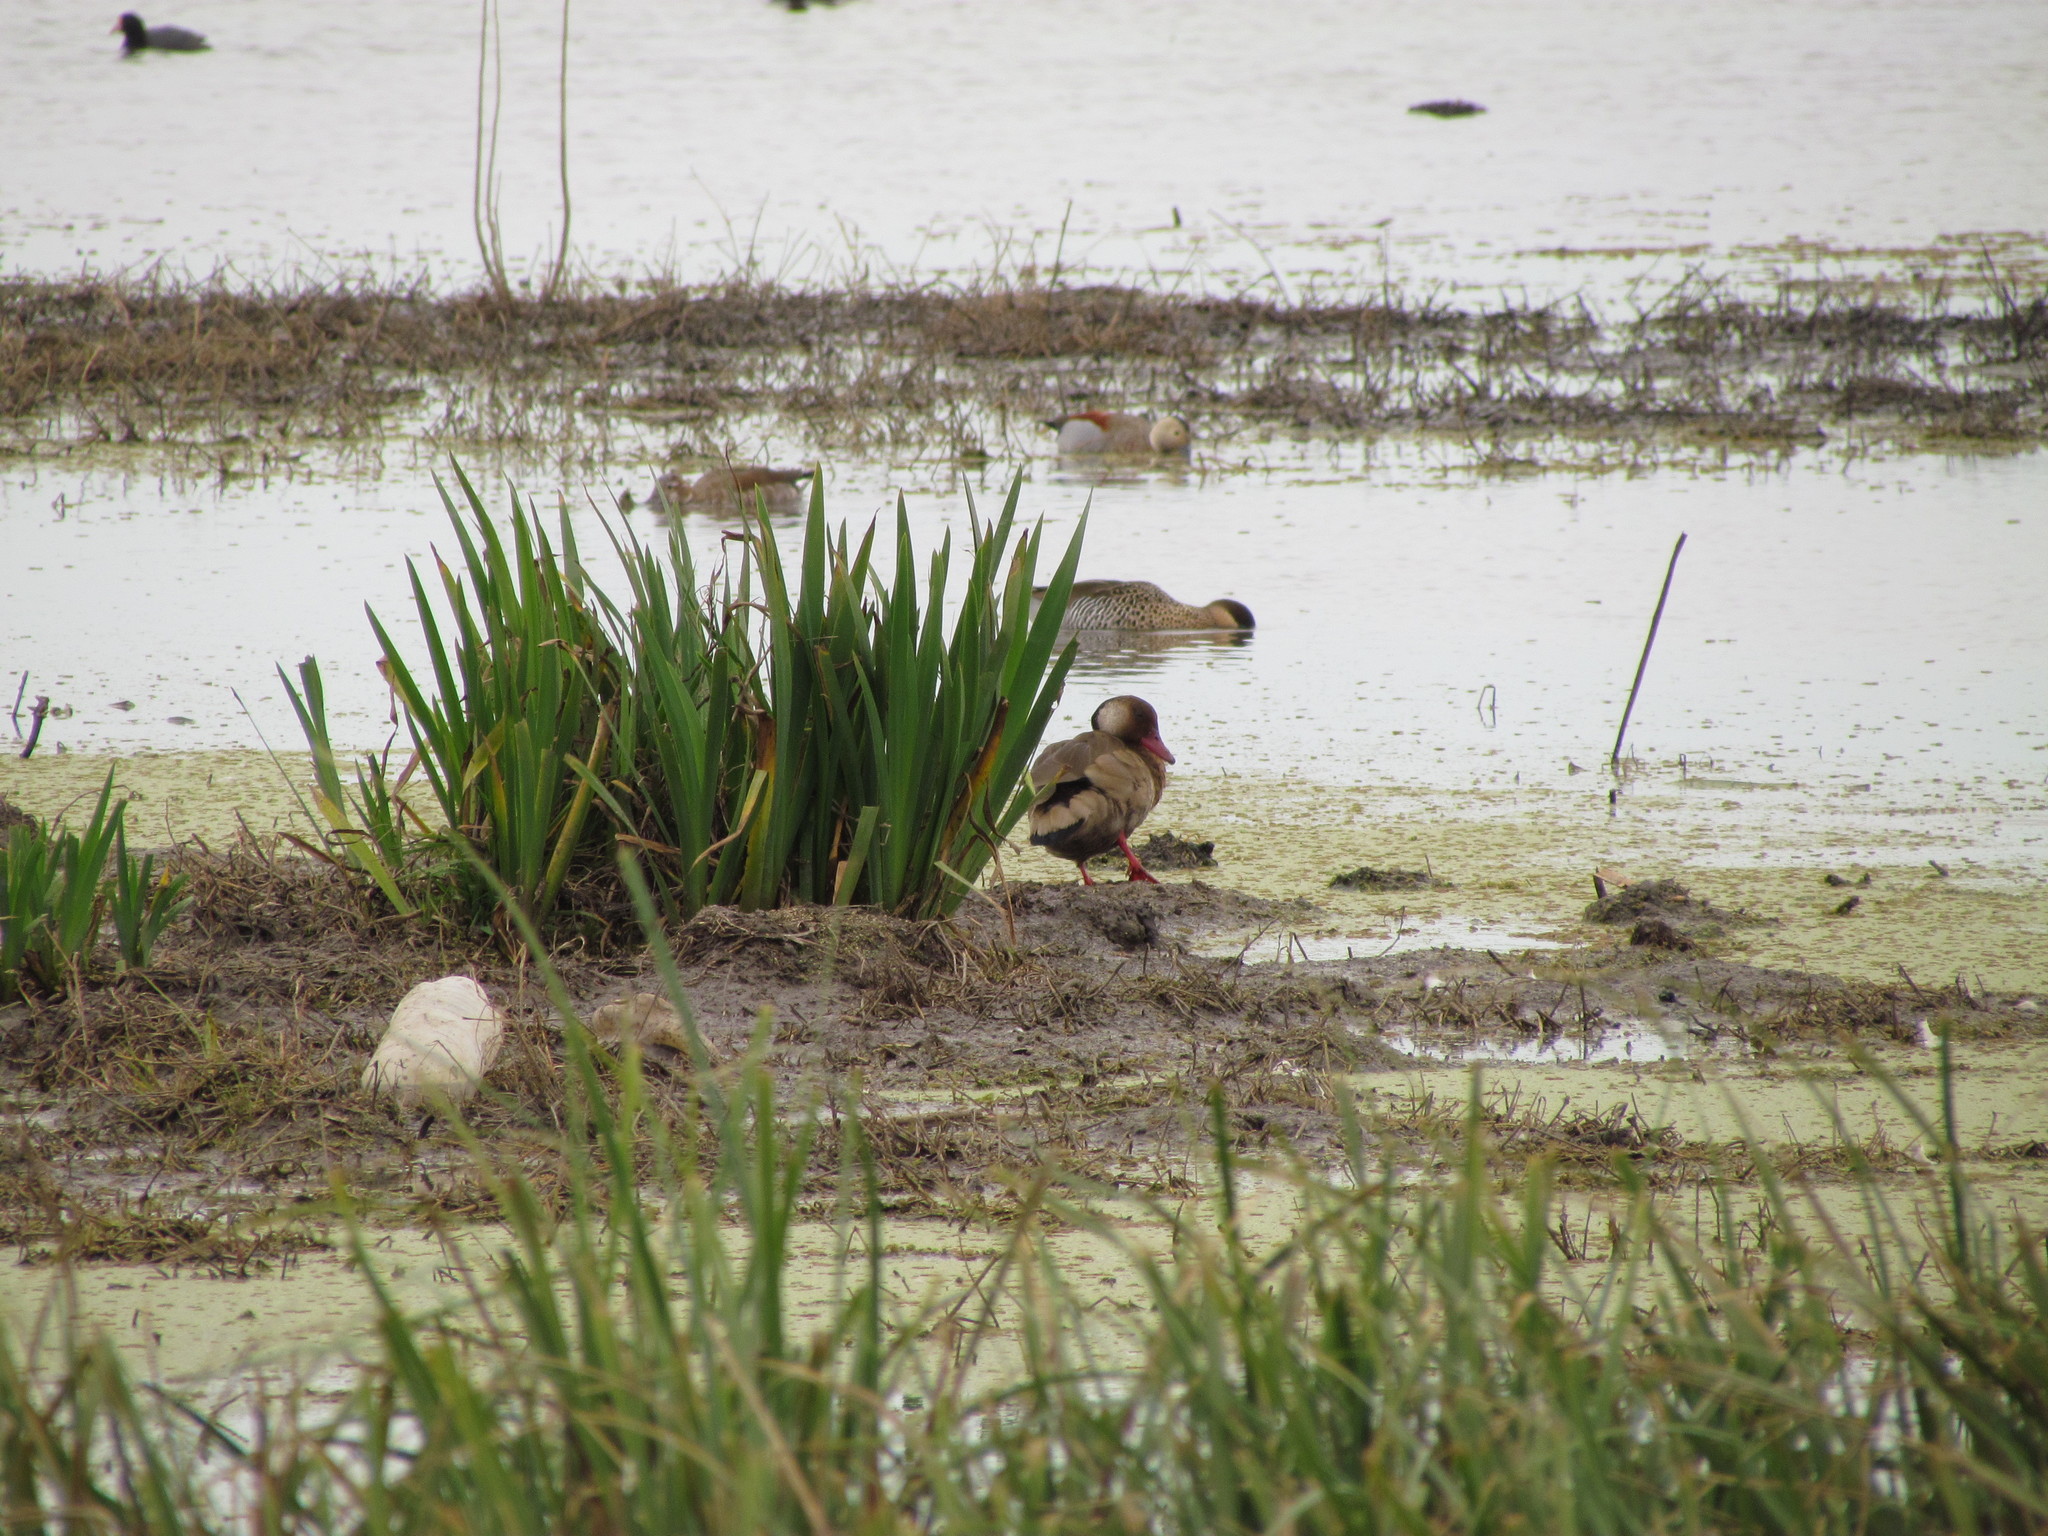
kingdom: Animalia
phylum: Chordata
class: Aves
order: Anseriformes
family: Anatidae
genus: Amazonetta
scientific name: Amazonetta brasiliensis
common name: Brazilian teal
